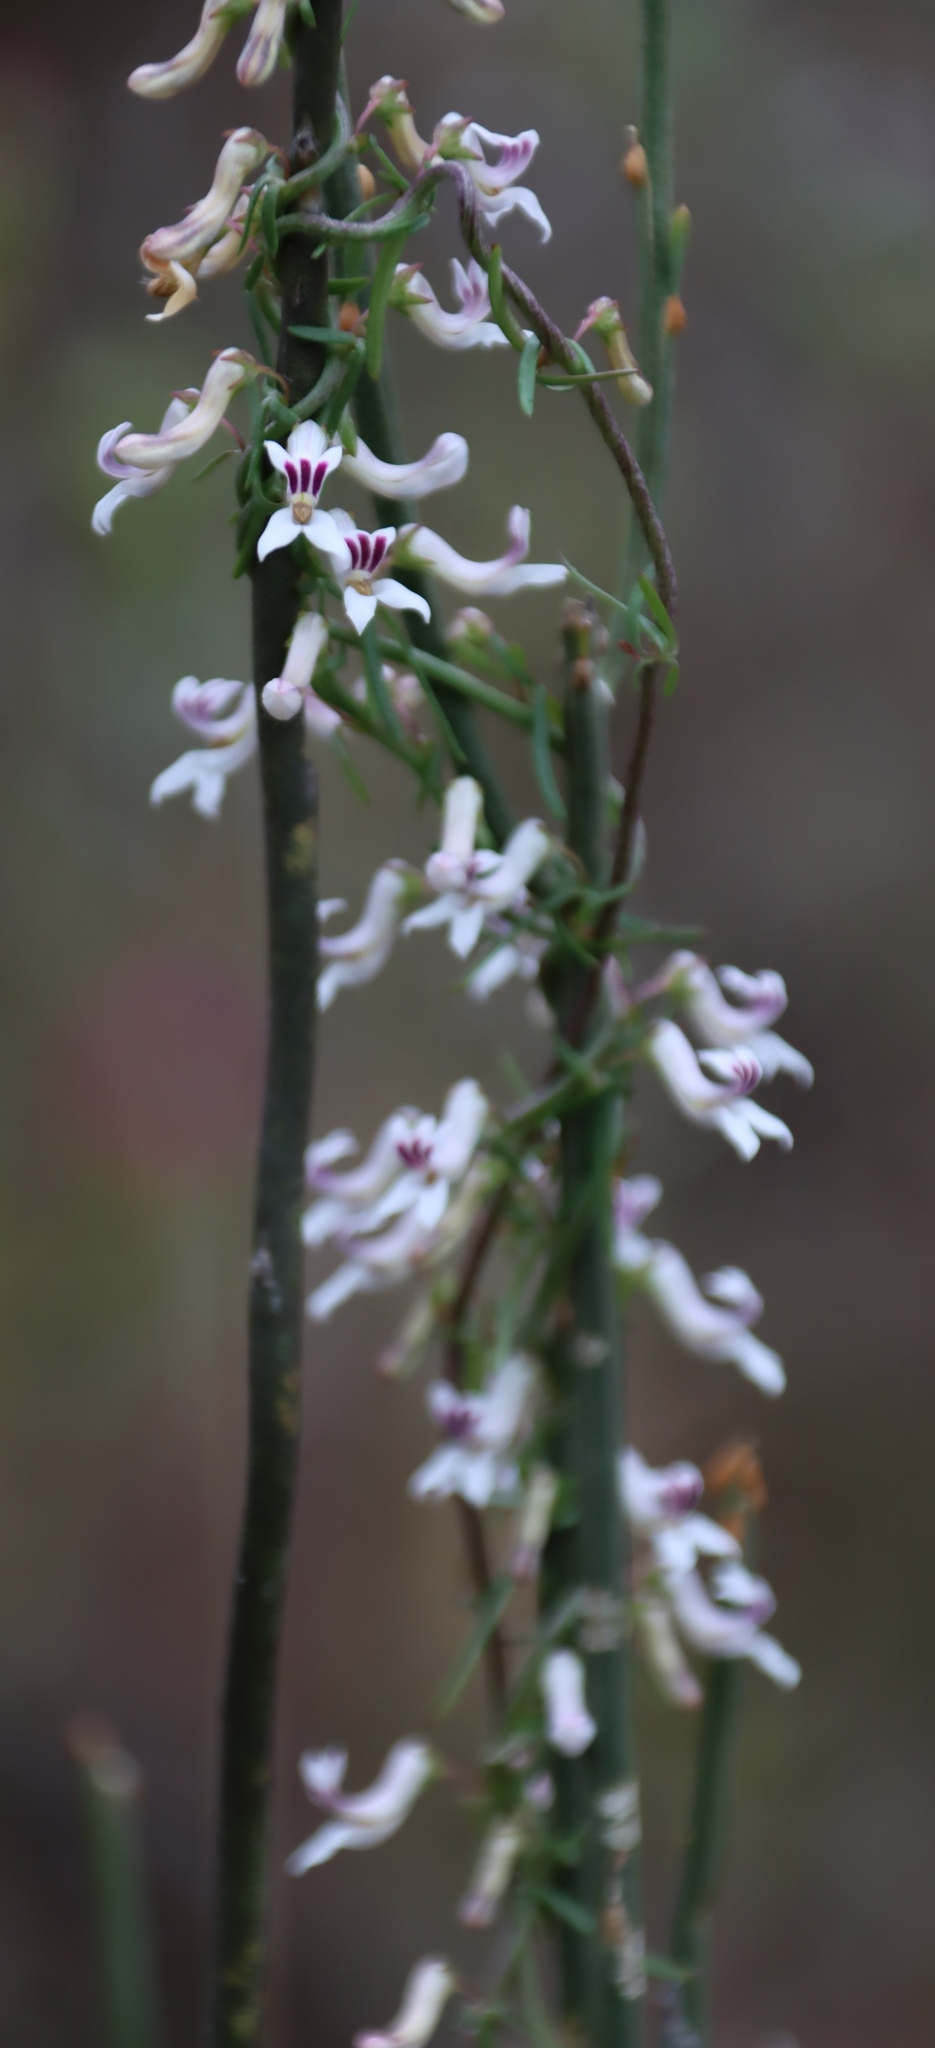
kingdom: Plantae
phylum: Tracheophyta
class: Magnoliopsida
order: Asterales
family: Campanulaceae
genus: Cyphia
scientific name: Cyphia digitata
